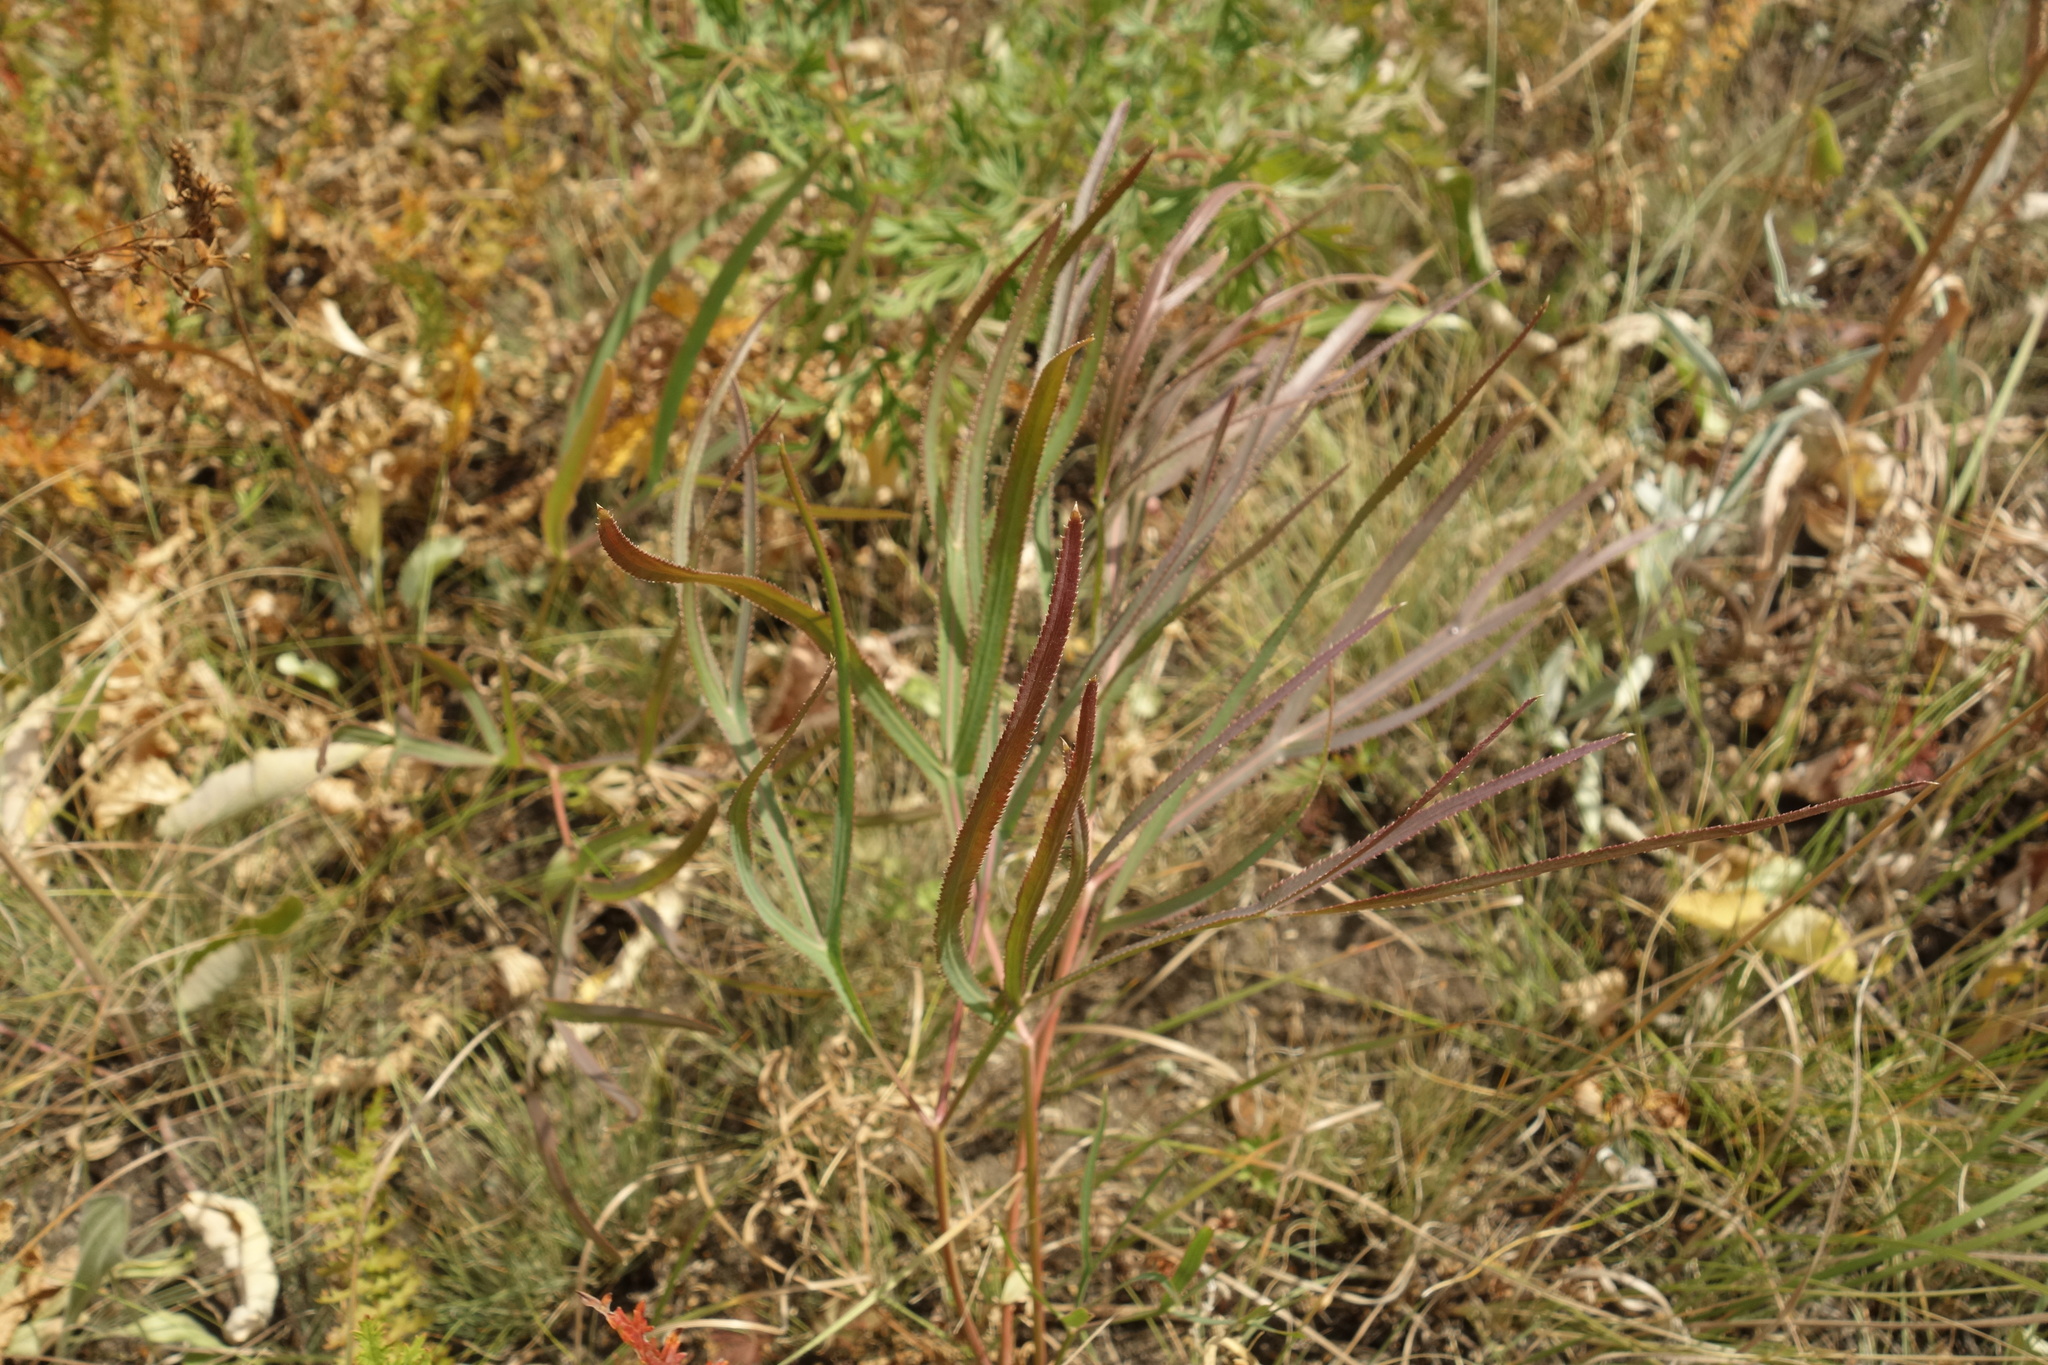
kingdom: Plantae
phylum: Tracheophyta
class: Magnoliopsida
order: Apiales
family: Apiaceae
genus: Falcaria
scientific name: Falcaria vulgaris
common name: Longleaf
